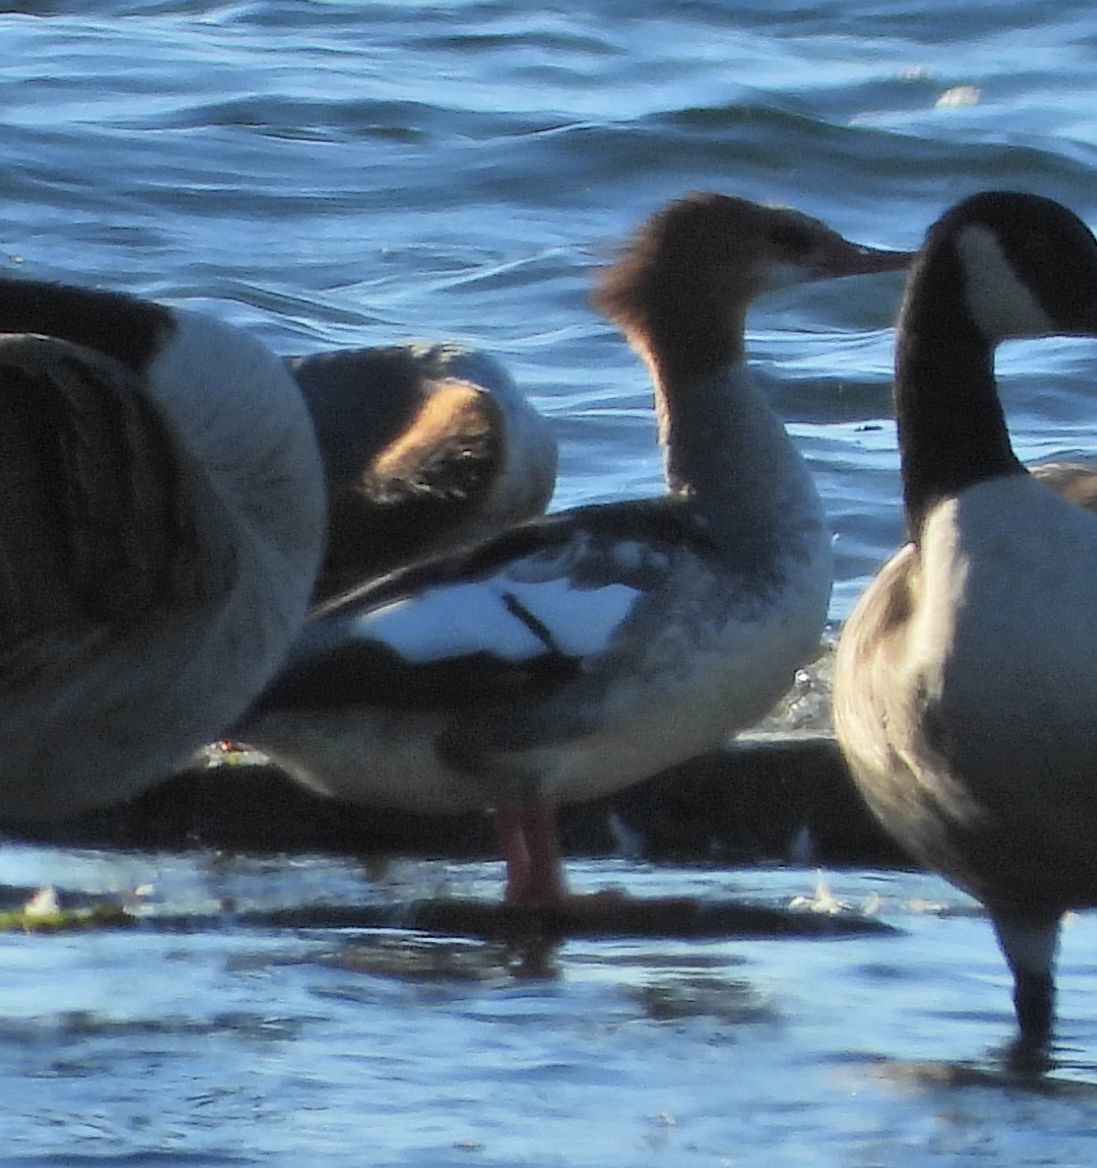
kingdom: Animalia
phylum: Chordata
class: Aves
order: Anseriformes
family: Anatidae
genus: Mergus
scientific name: Mergus merganser
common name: Common merganser
